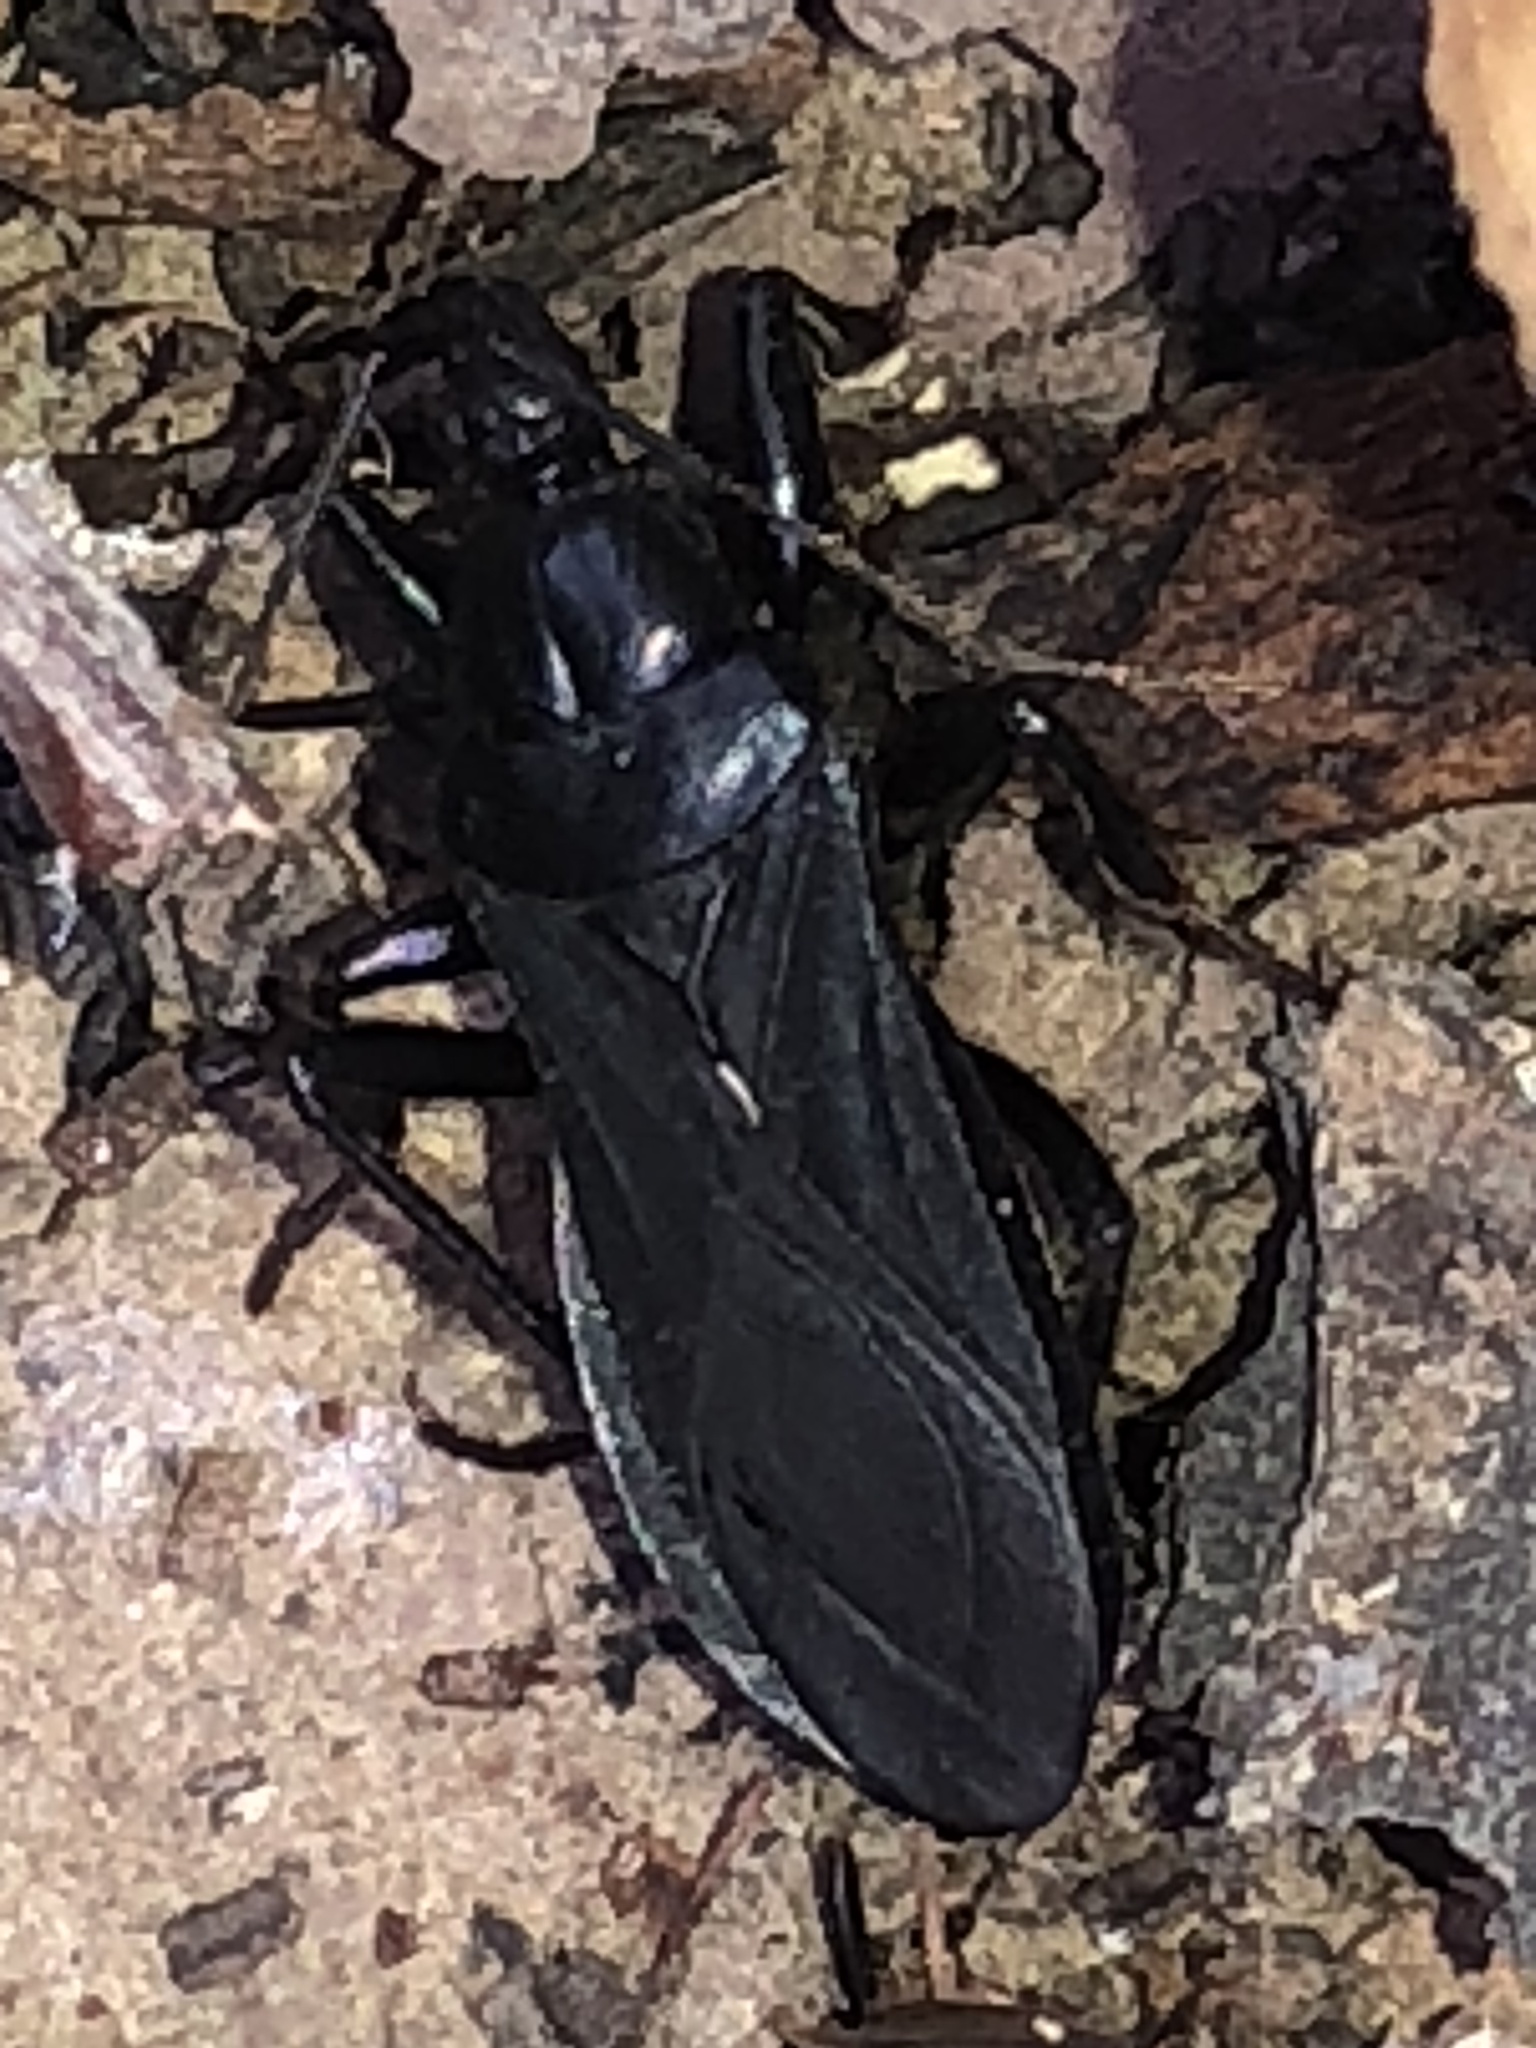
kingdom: Animalia
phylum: Arthropoda
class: Insecta
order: Hemiptera
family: Reduviidae
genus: Melanolestes
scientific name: Melanolestes picipes
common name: Assassin bug
